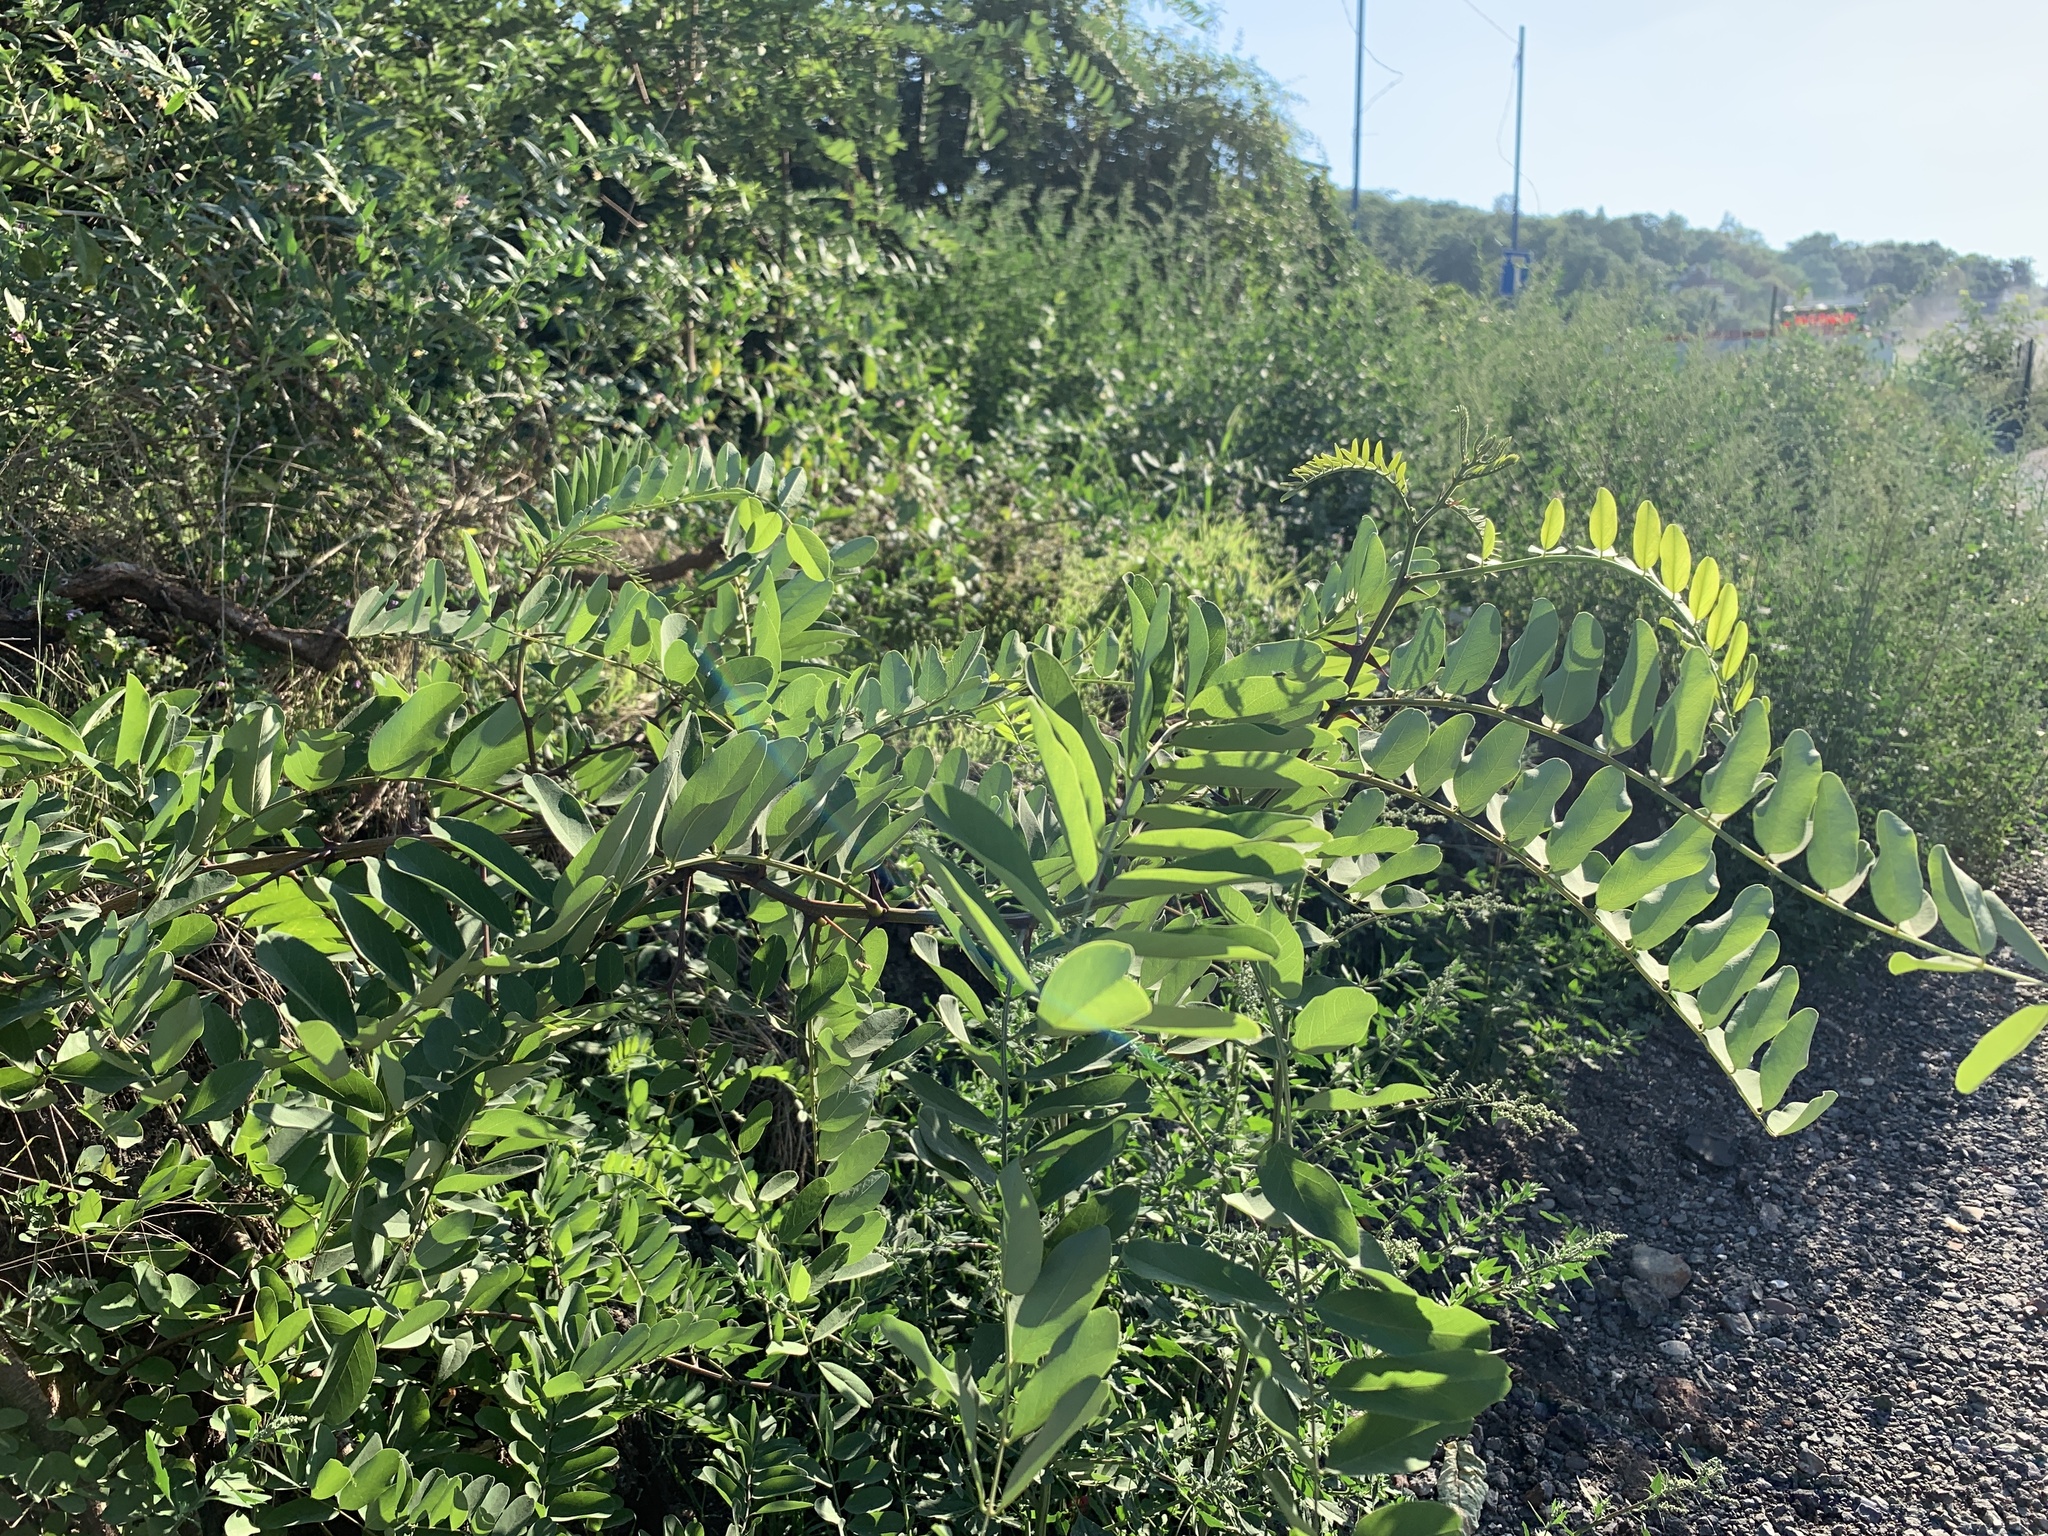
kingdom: Plantae
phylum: Tracheophyta
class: Magnoliopsida
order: Fabales
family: Fabaceae
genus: Robinia
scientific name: Robinia pseudoacacia
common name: Black locust
